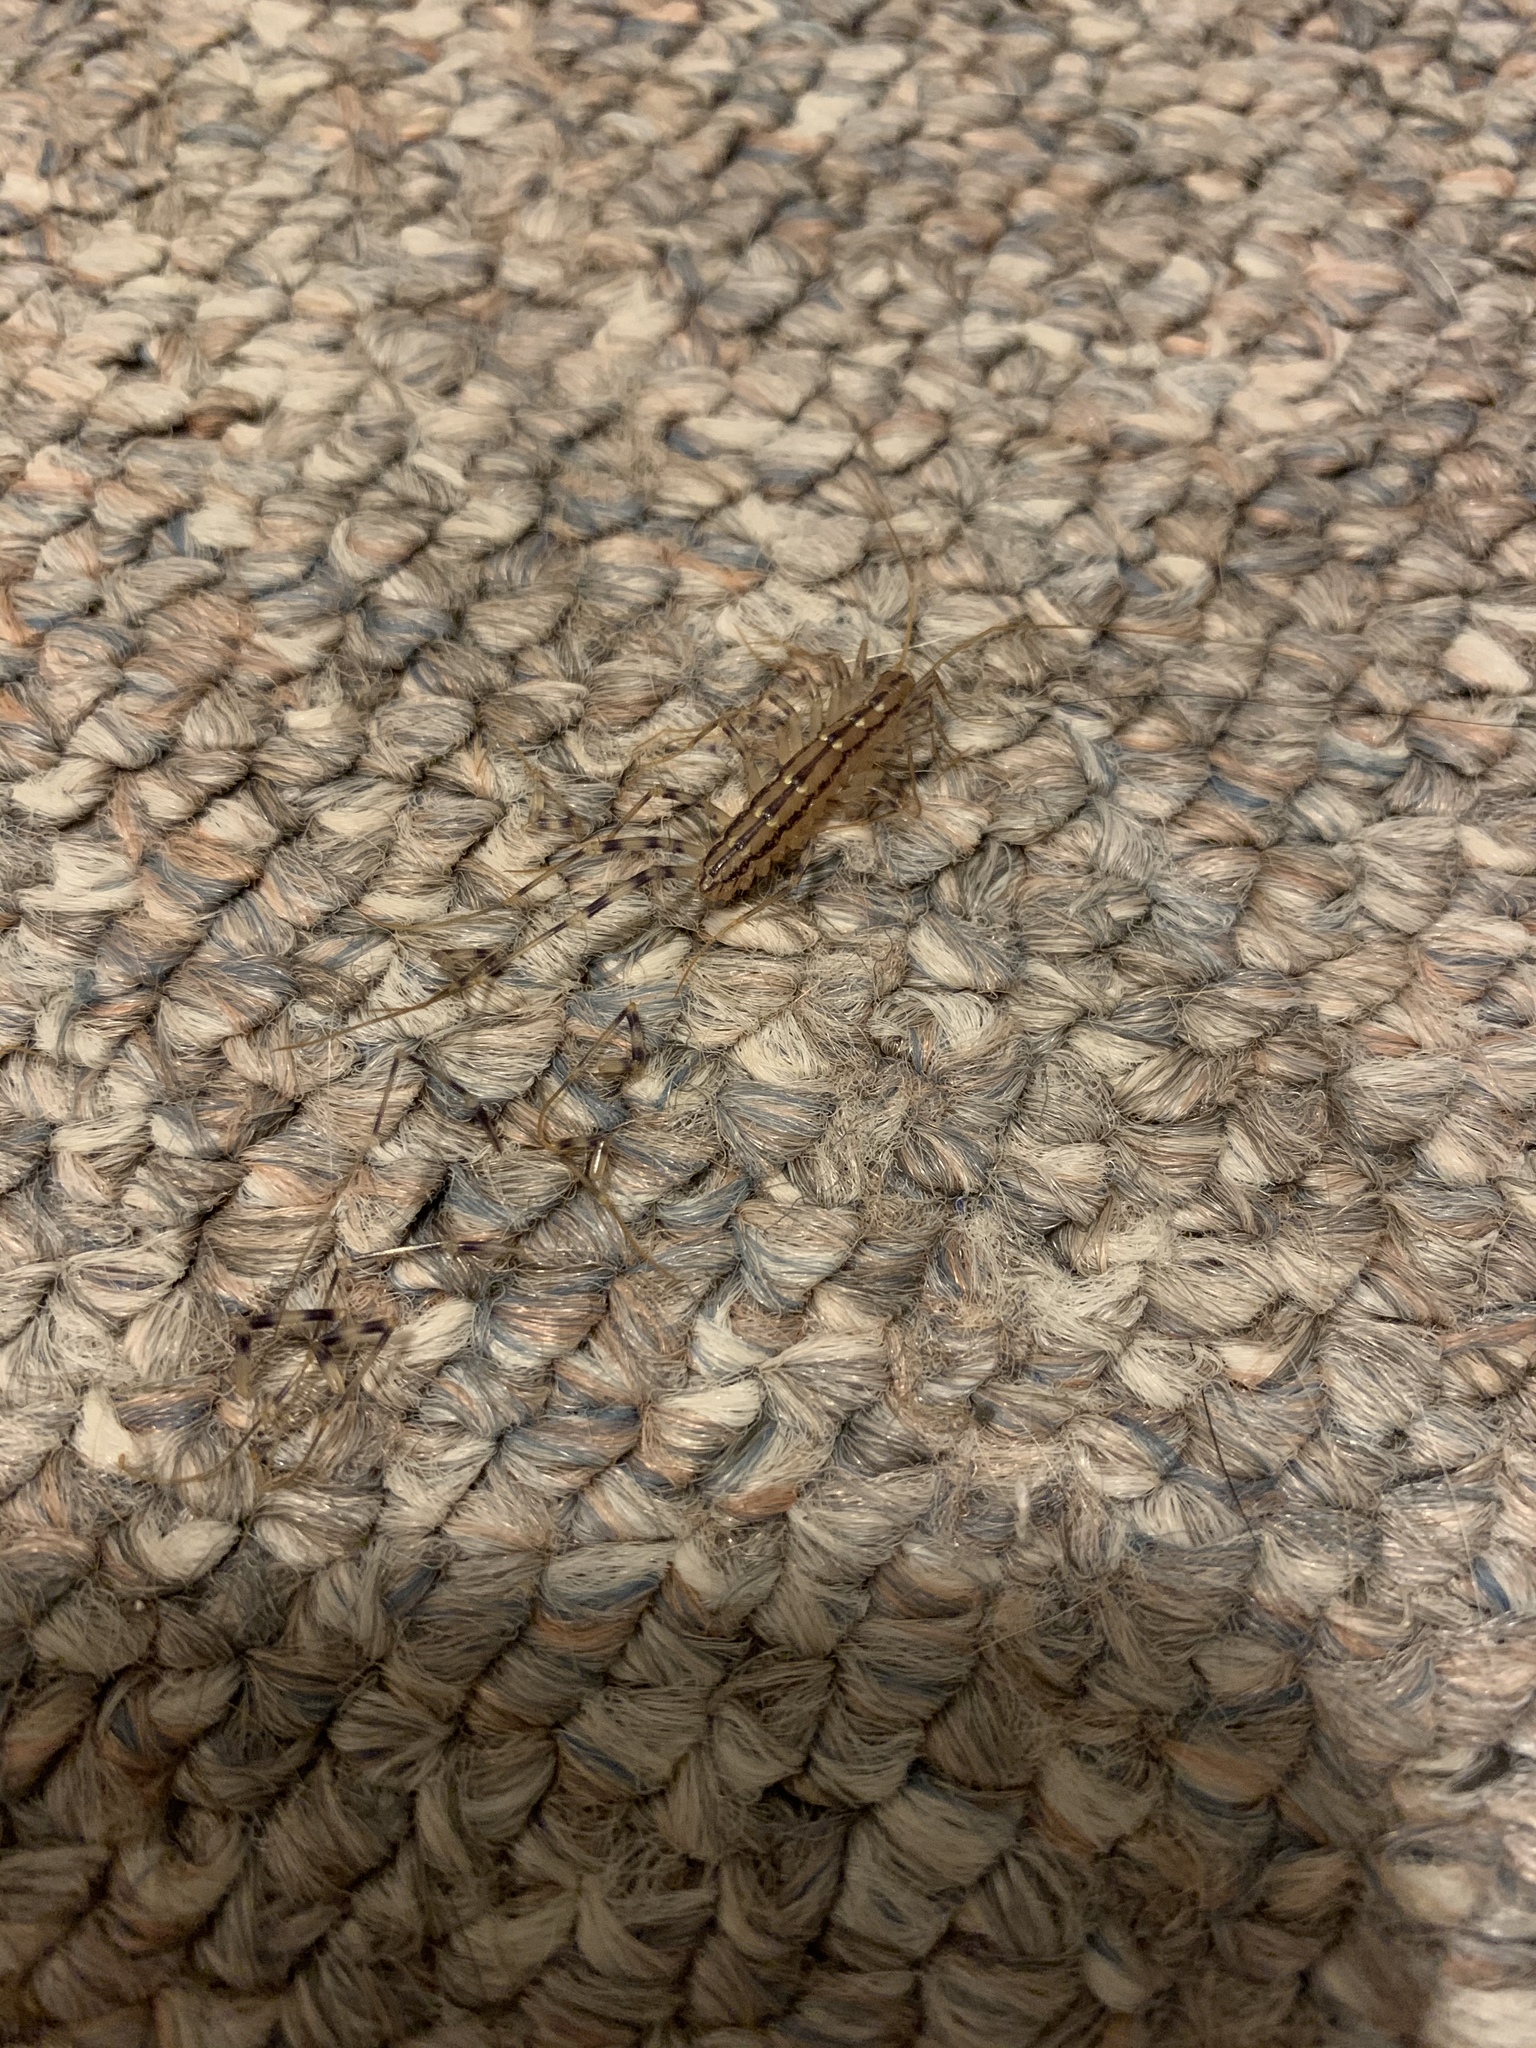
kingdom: Animalia
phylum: Arthropoda
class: Chilopoda
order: Scutigeromorpha
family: Scutigeridae
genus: Scutigera
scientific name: Scutigera coleoptrata
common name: House centipede
